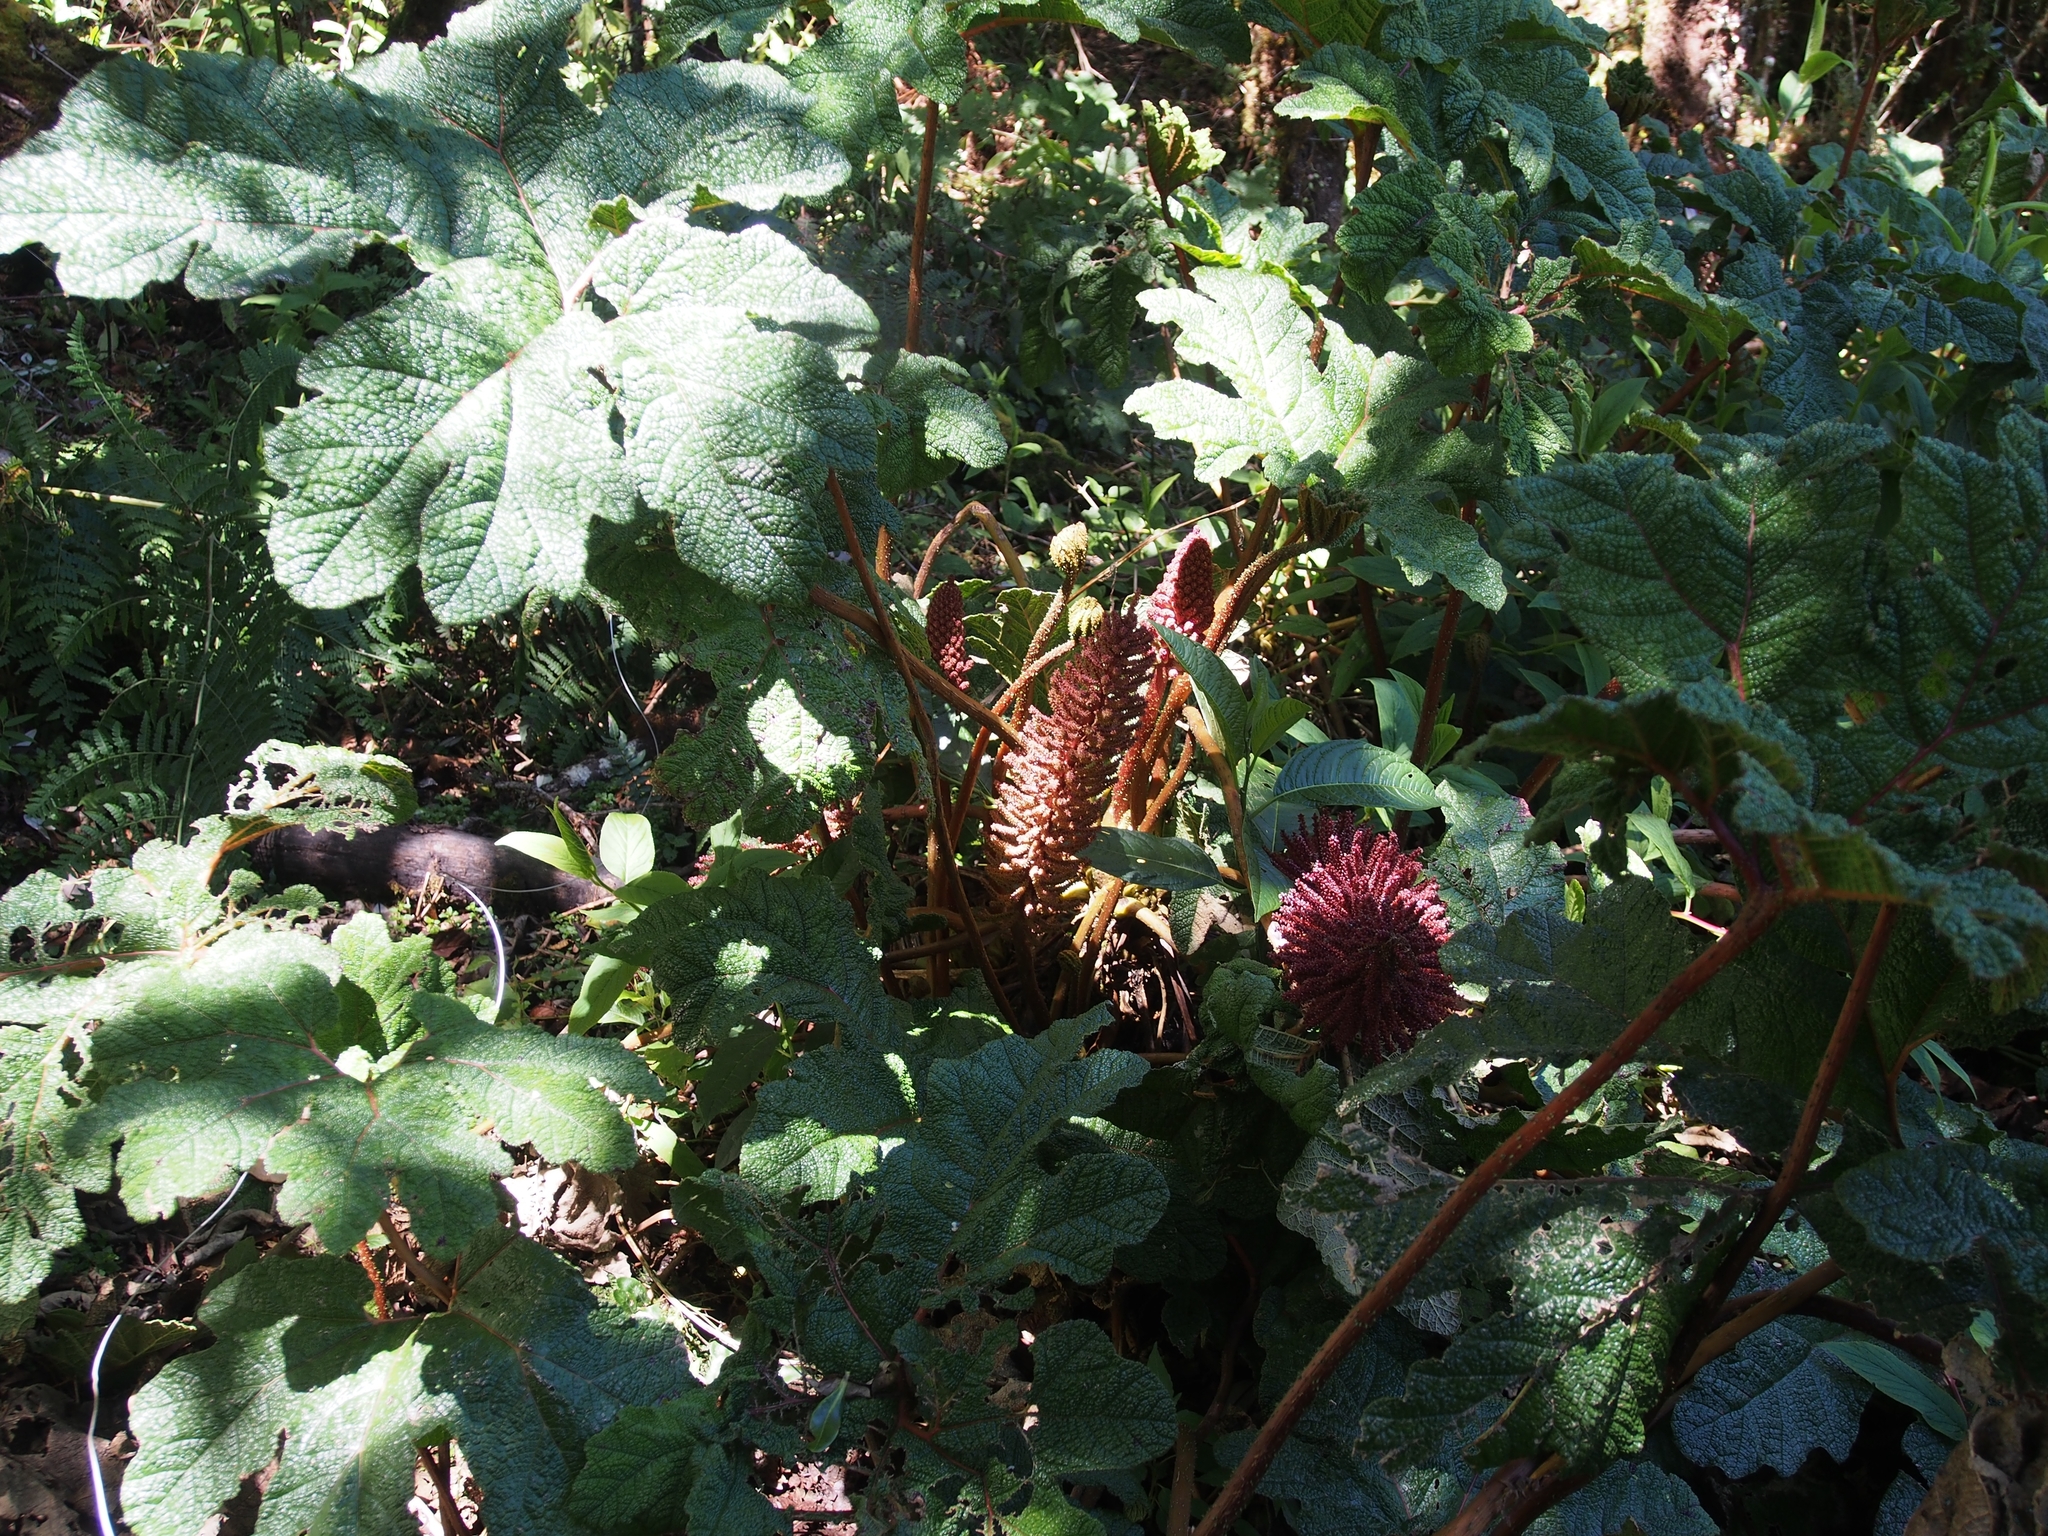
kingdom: Plantae
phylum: Tracheophyta
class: Magnoliopsida
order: Gunnerales
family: Gunneraceae
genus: Gunnera
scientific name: Gunnera talamancana
